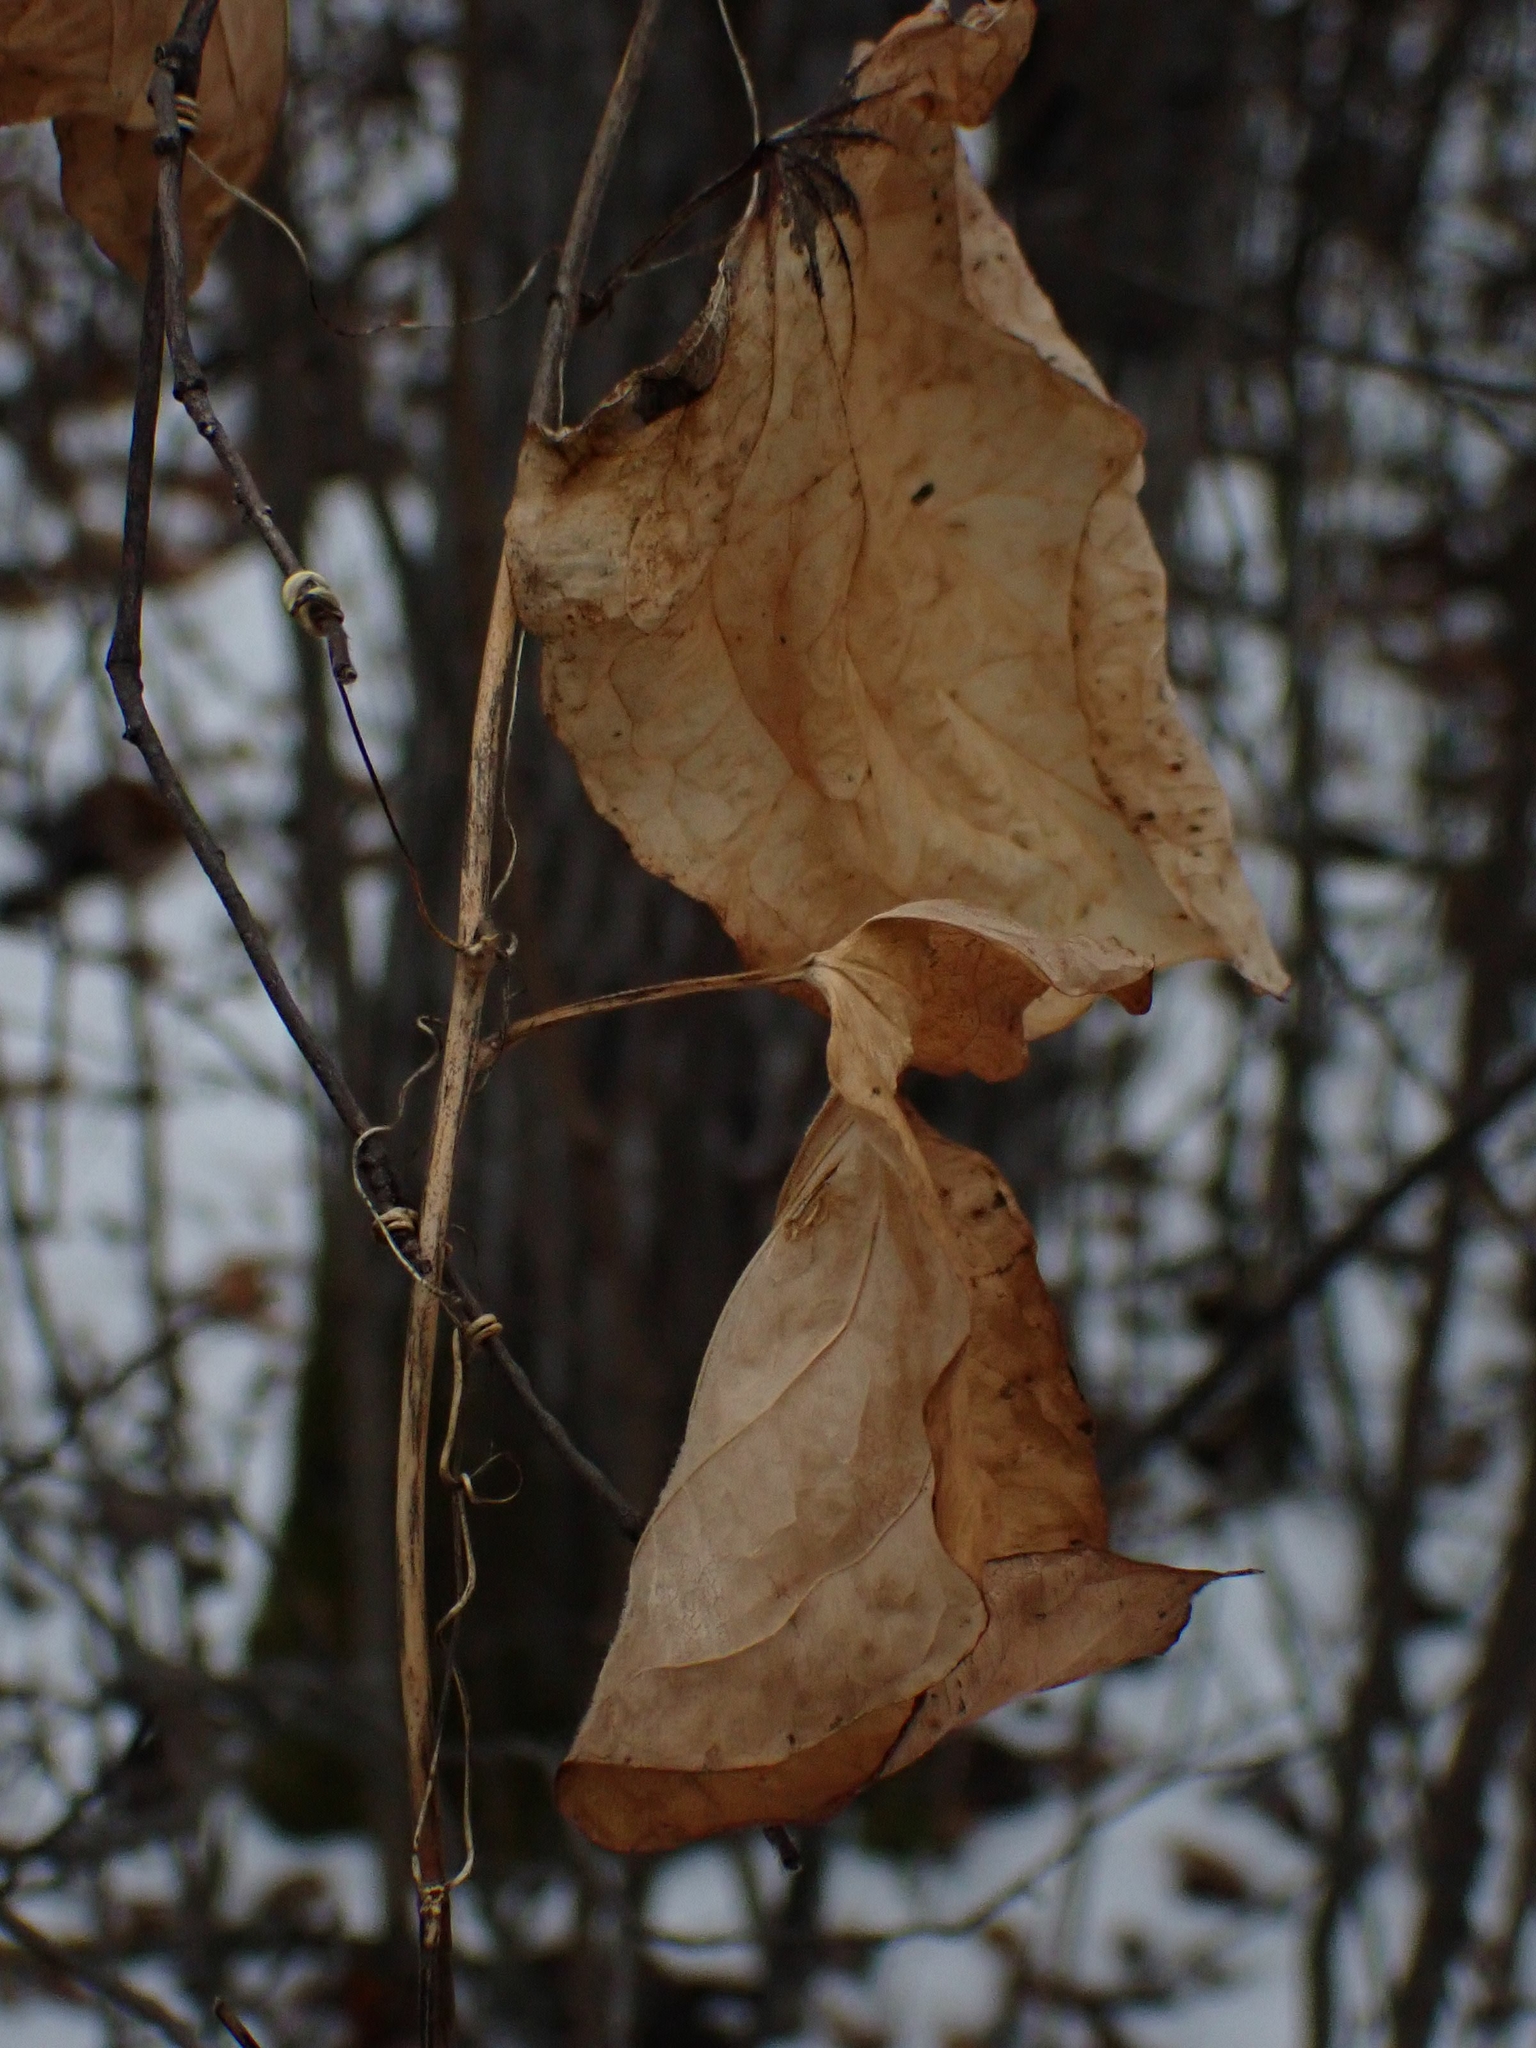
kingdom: Plantae
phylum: Tracheophyta
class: Liliopsida
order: Liliales
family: Smilacaceae
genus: Smilax
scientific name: Smilax lasioneura
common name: Blue ridge carrionflower
